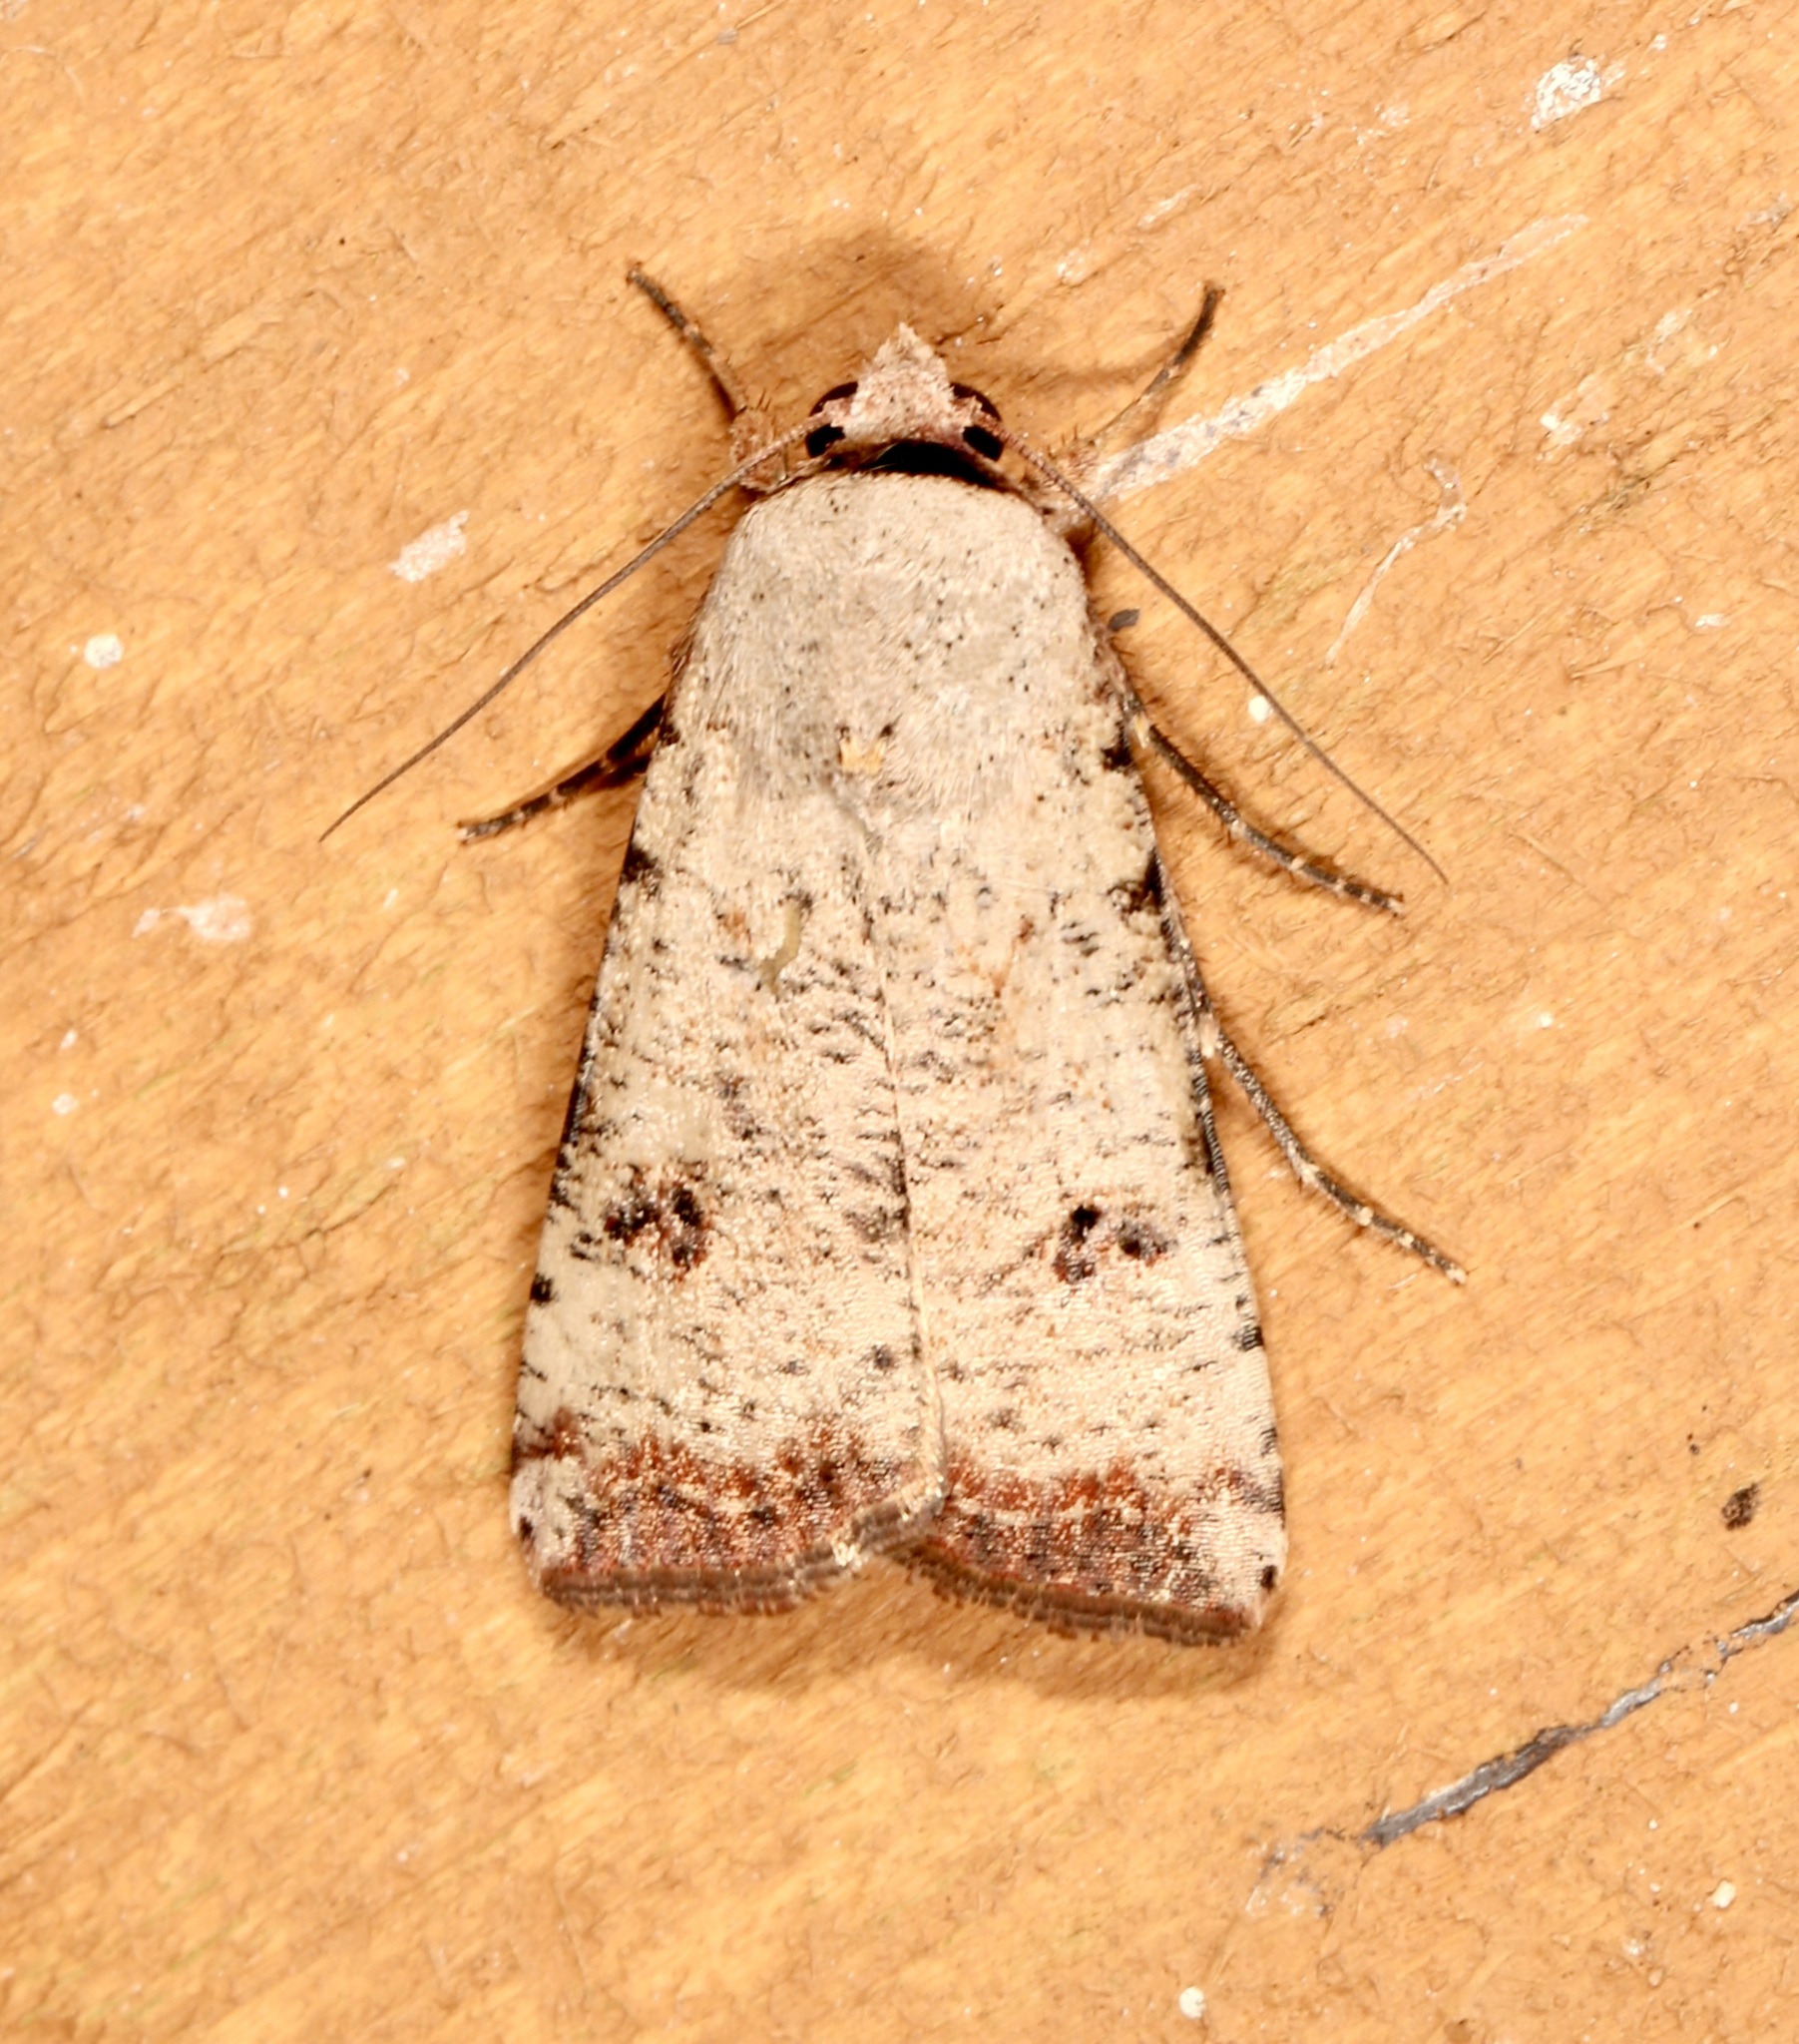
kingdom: Animalia
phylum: Arthropoda
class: Insecta
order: Lepidoptera
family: Noctuidae
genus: Anicla
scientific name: Anicla infecta
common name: Green cutworm
